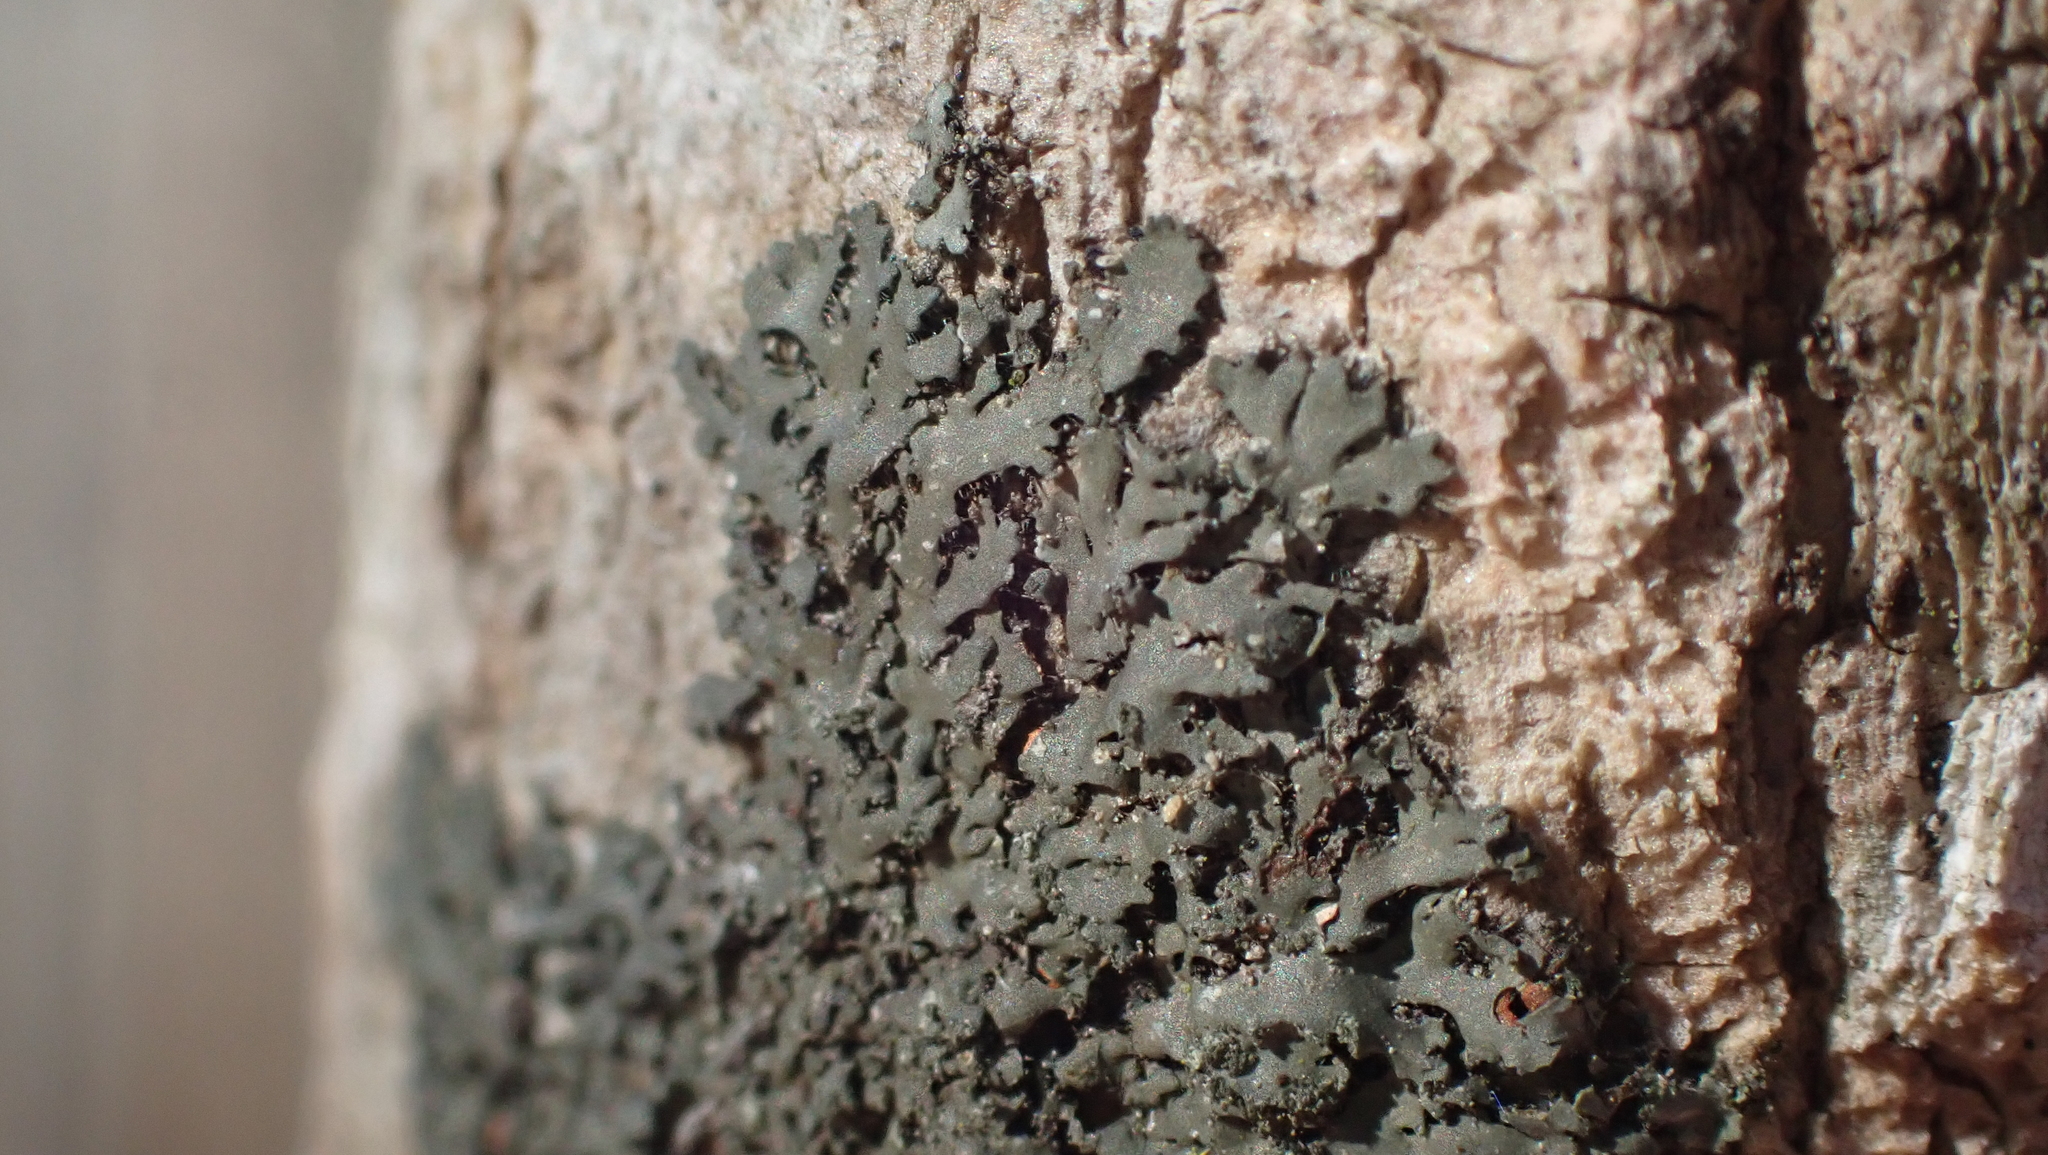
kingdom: Fungi
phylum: Ascomycota
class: Lecanoromycetes
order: Caliciales
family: Physciaceae
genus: Phaeophyscia
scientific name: Phaeophyscia rubropulchra
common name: Orange-cored shadow lichen
